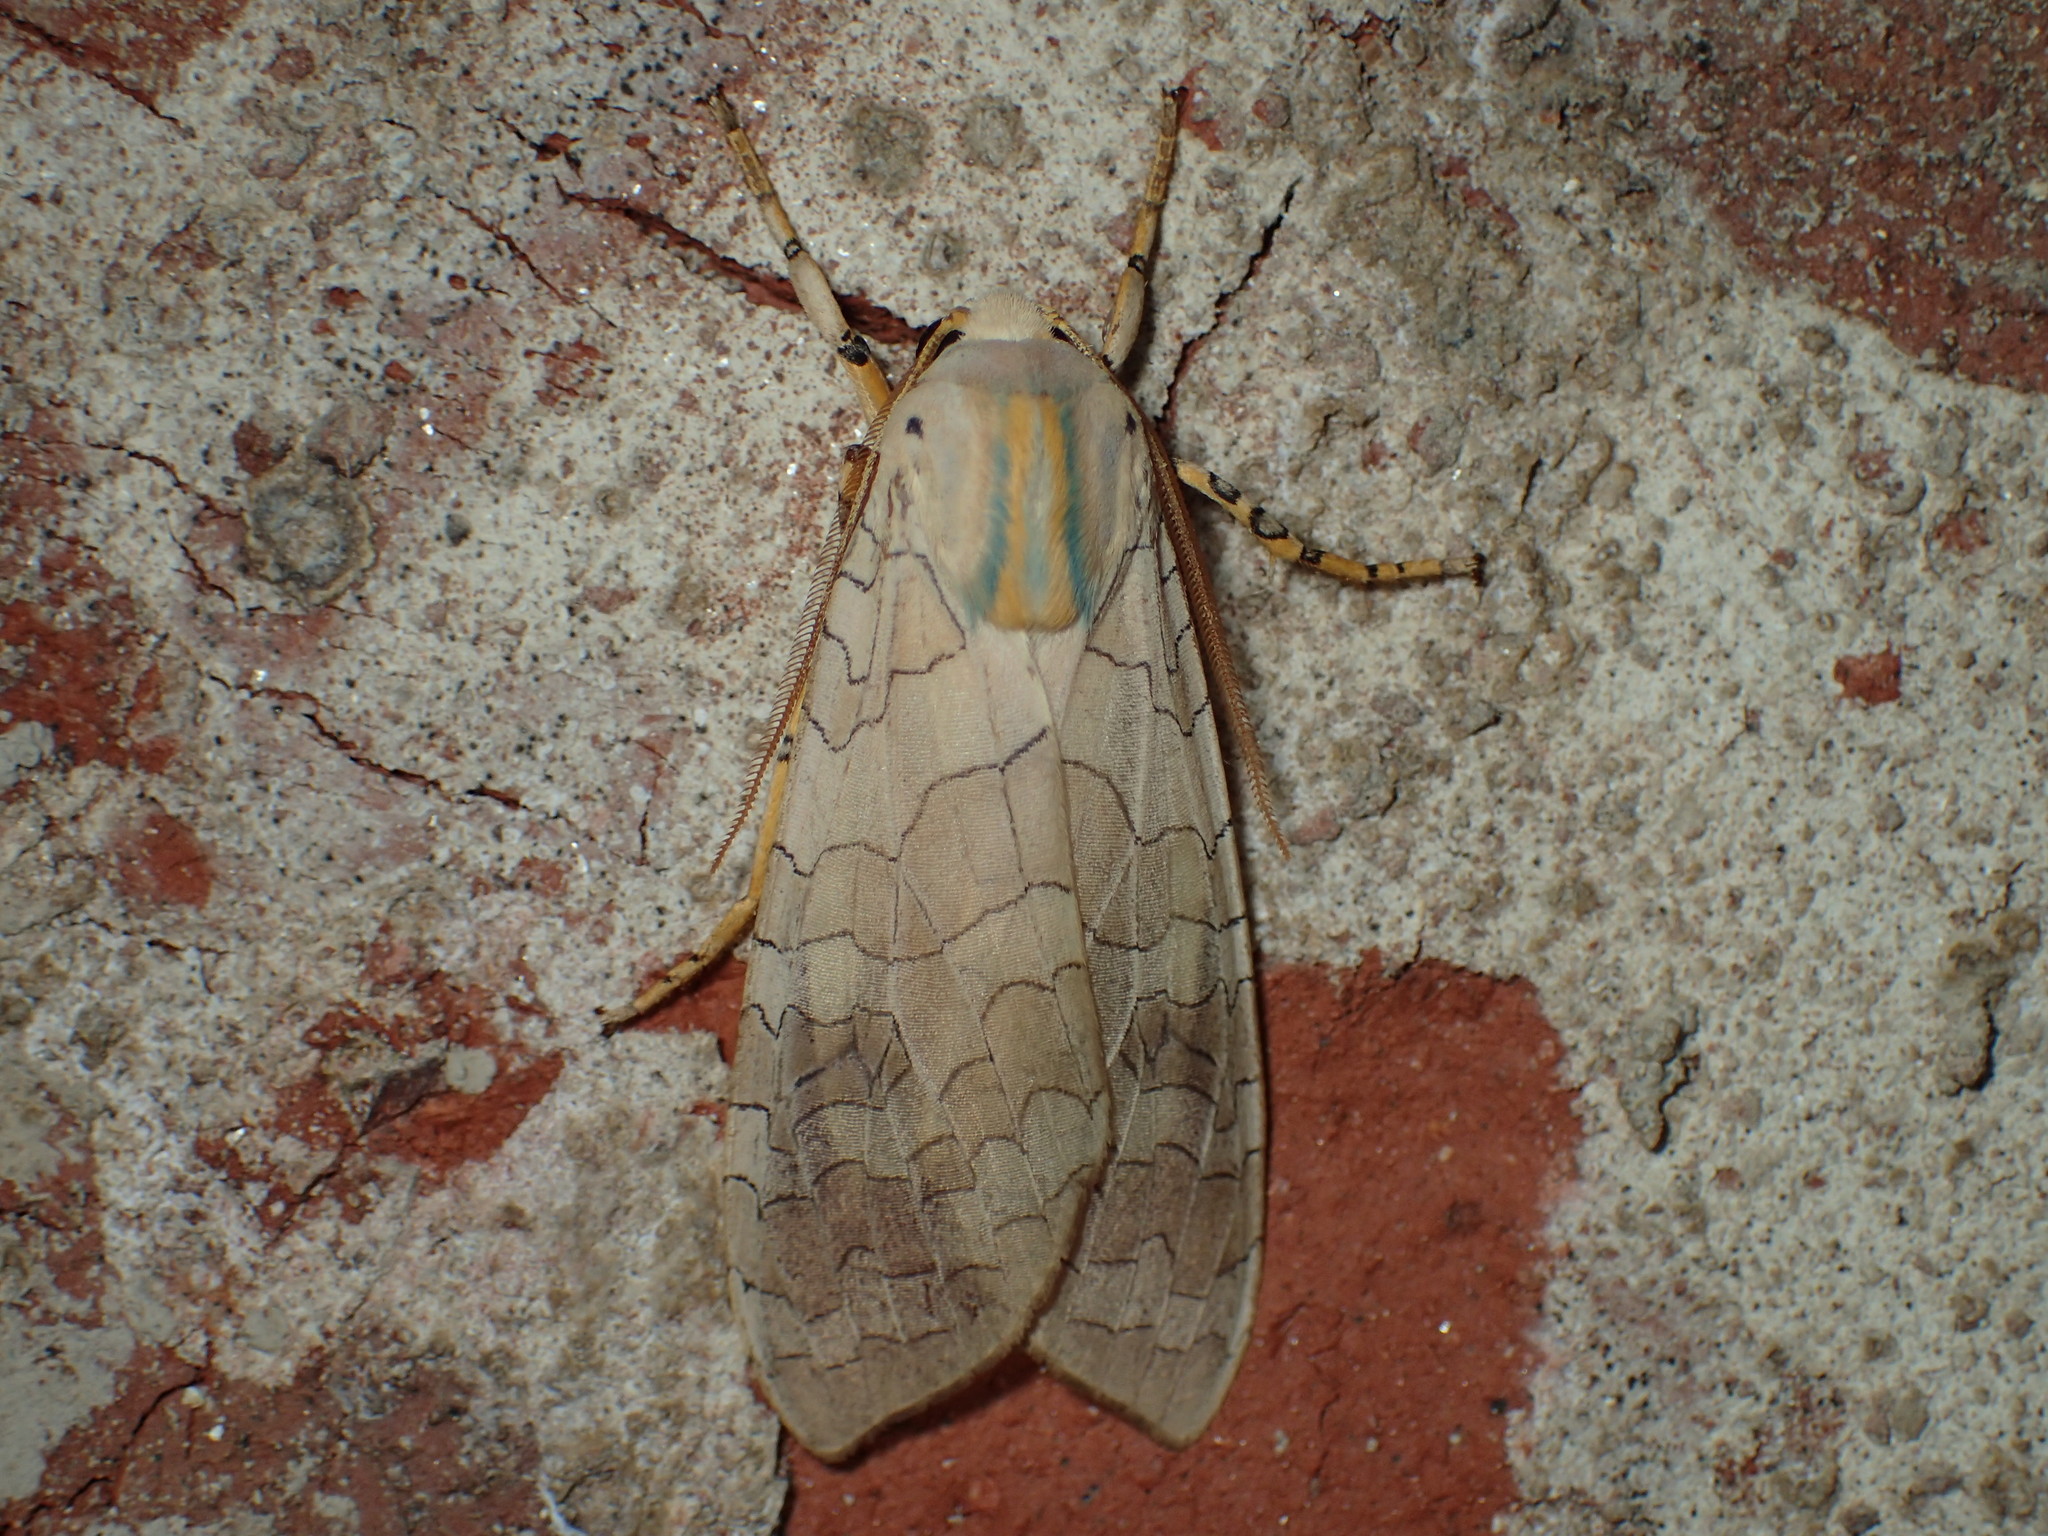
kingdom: Animalia
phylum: Arthropoda
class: Insecta
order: Lepidoptera
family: Erebidae
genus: Halysidota
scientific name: Halysidota
